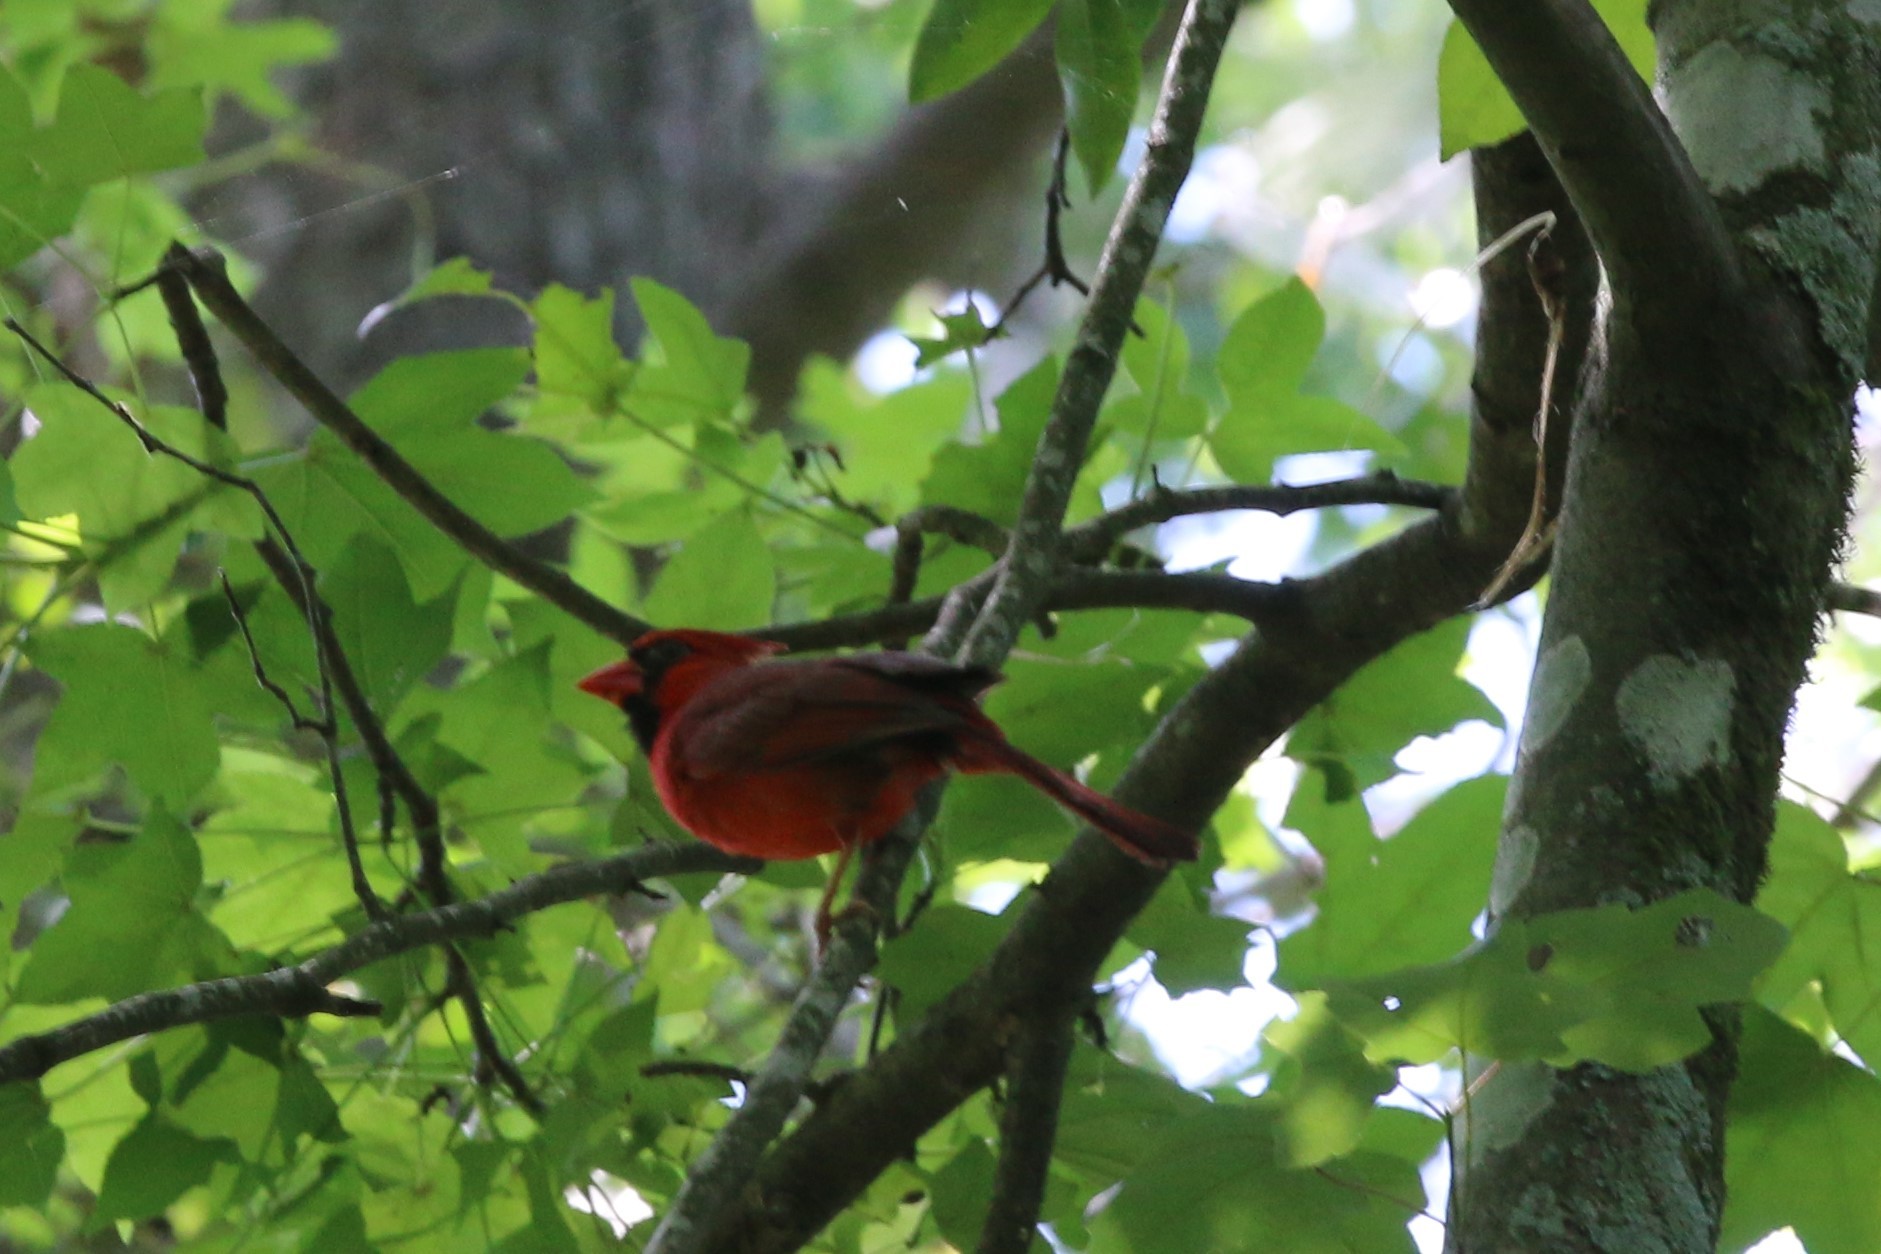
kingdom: Animalia
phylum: Chordata
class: Aves
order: Passeriformes
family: Cardinalidae
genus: Cardinalis
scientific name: Cardinalis cardinalis
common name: Northern cardinal
